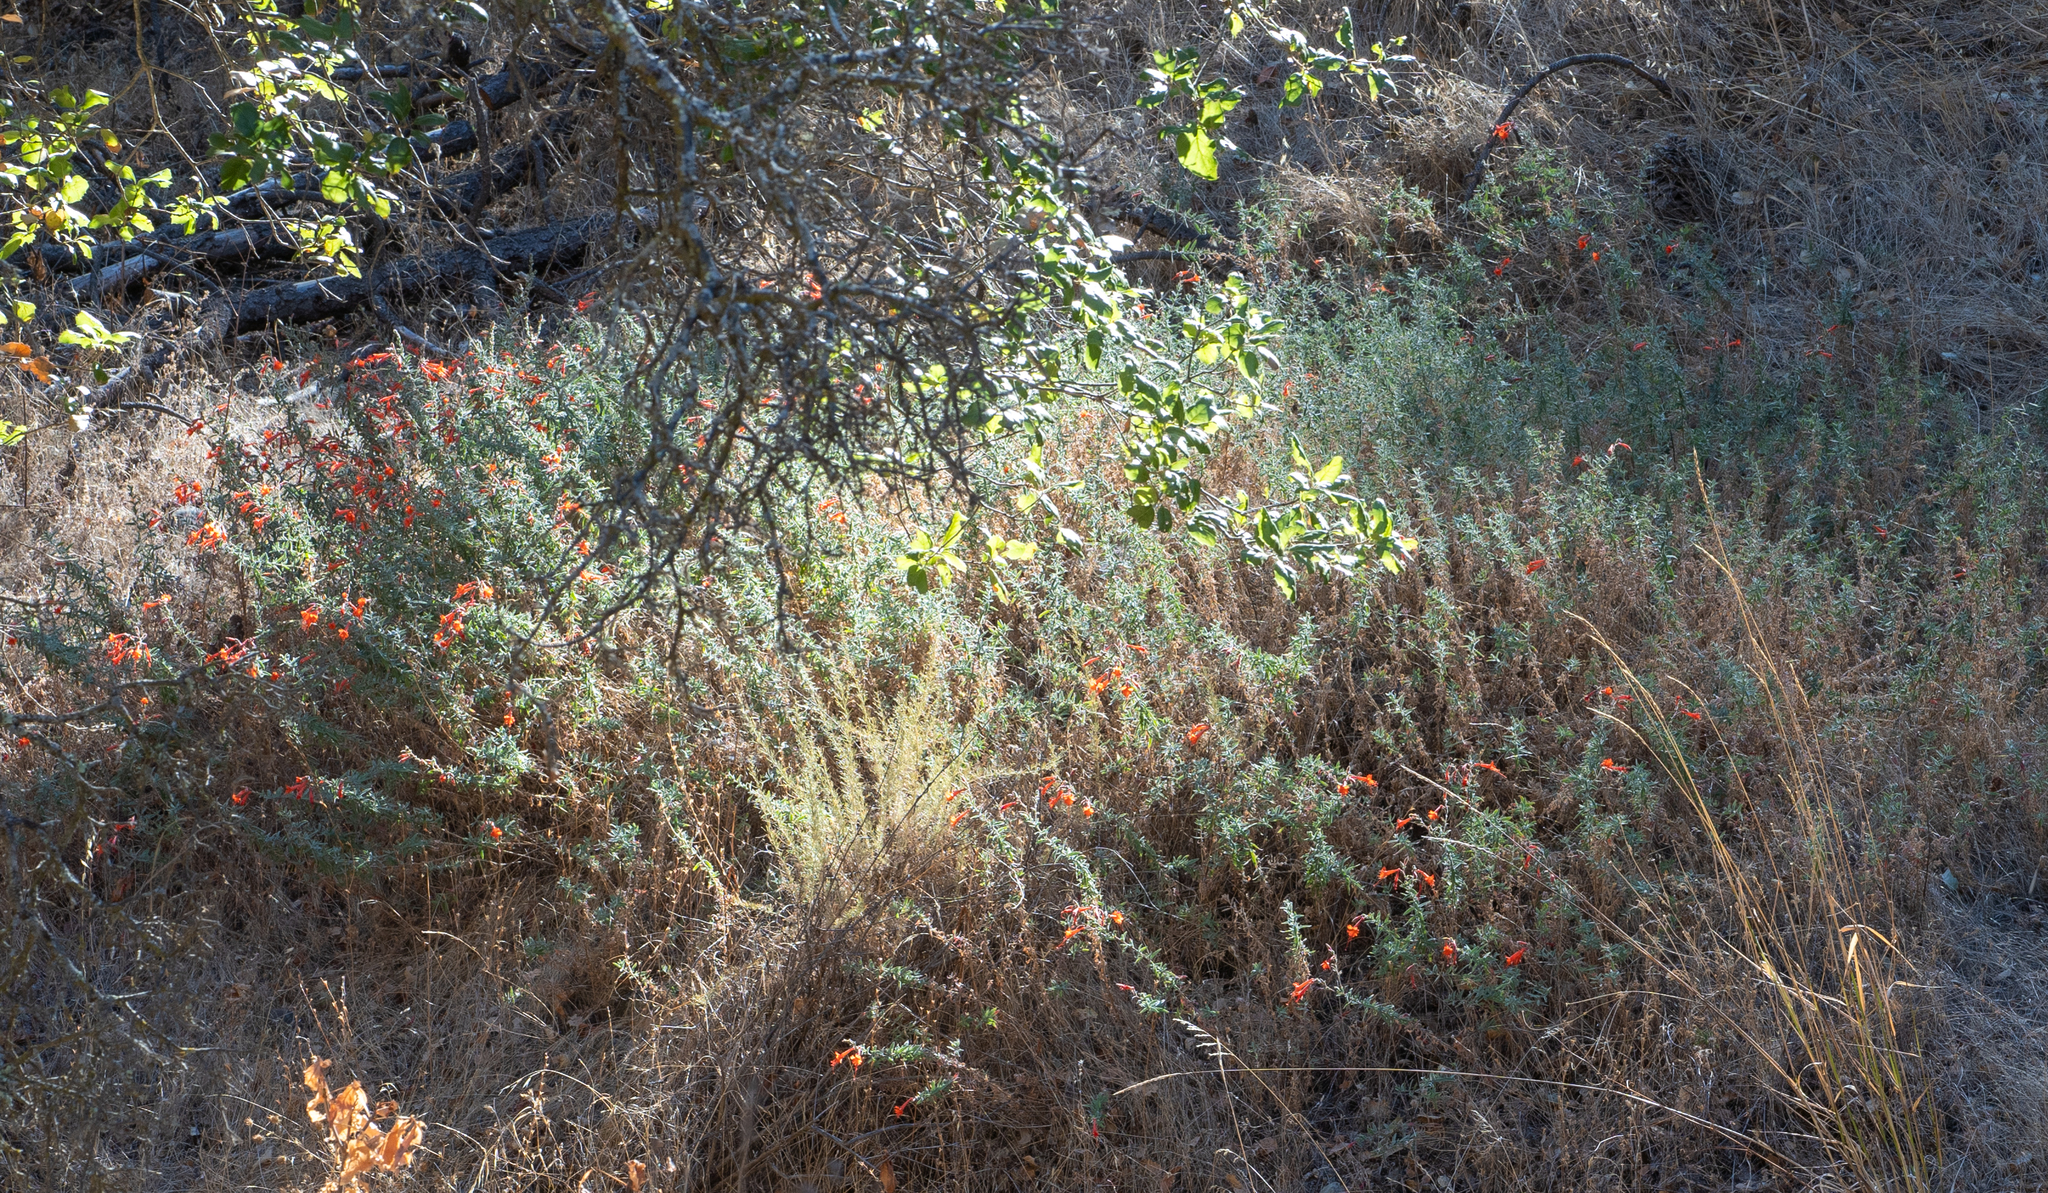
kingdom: Plantae
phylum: Tracheophyta
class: Magnoliopsida
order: Myrtales
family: Onagraceae
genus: Epilobium
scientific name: Epilobium canum
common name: California-fuchsia
